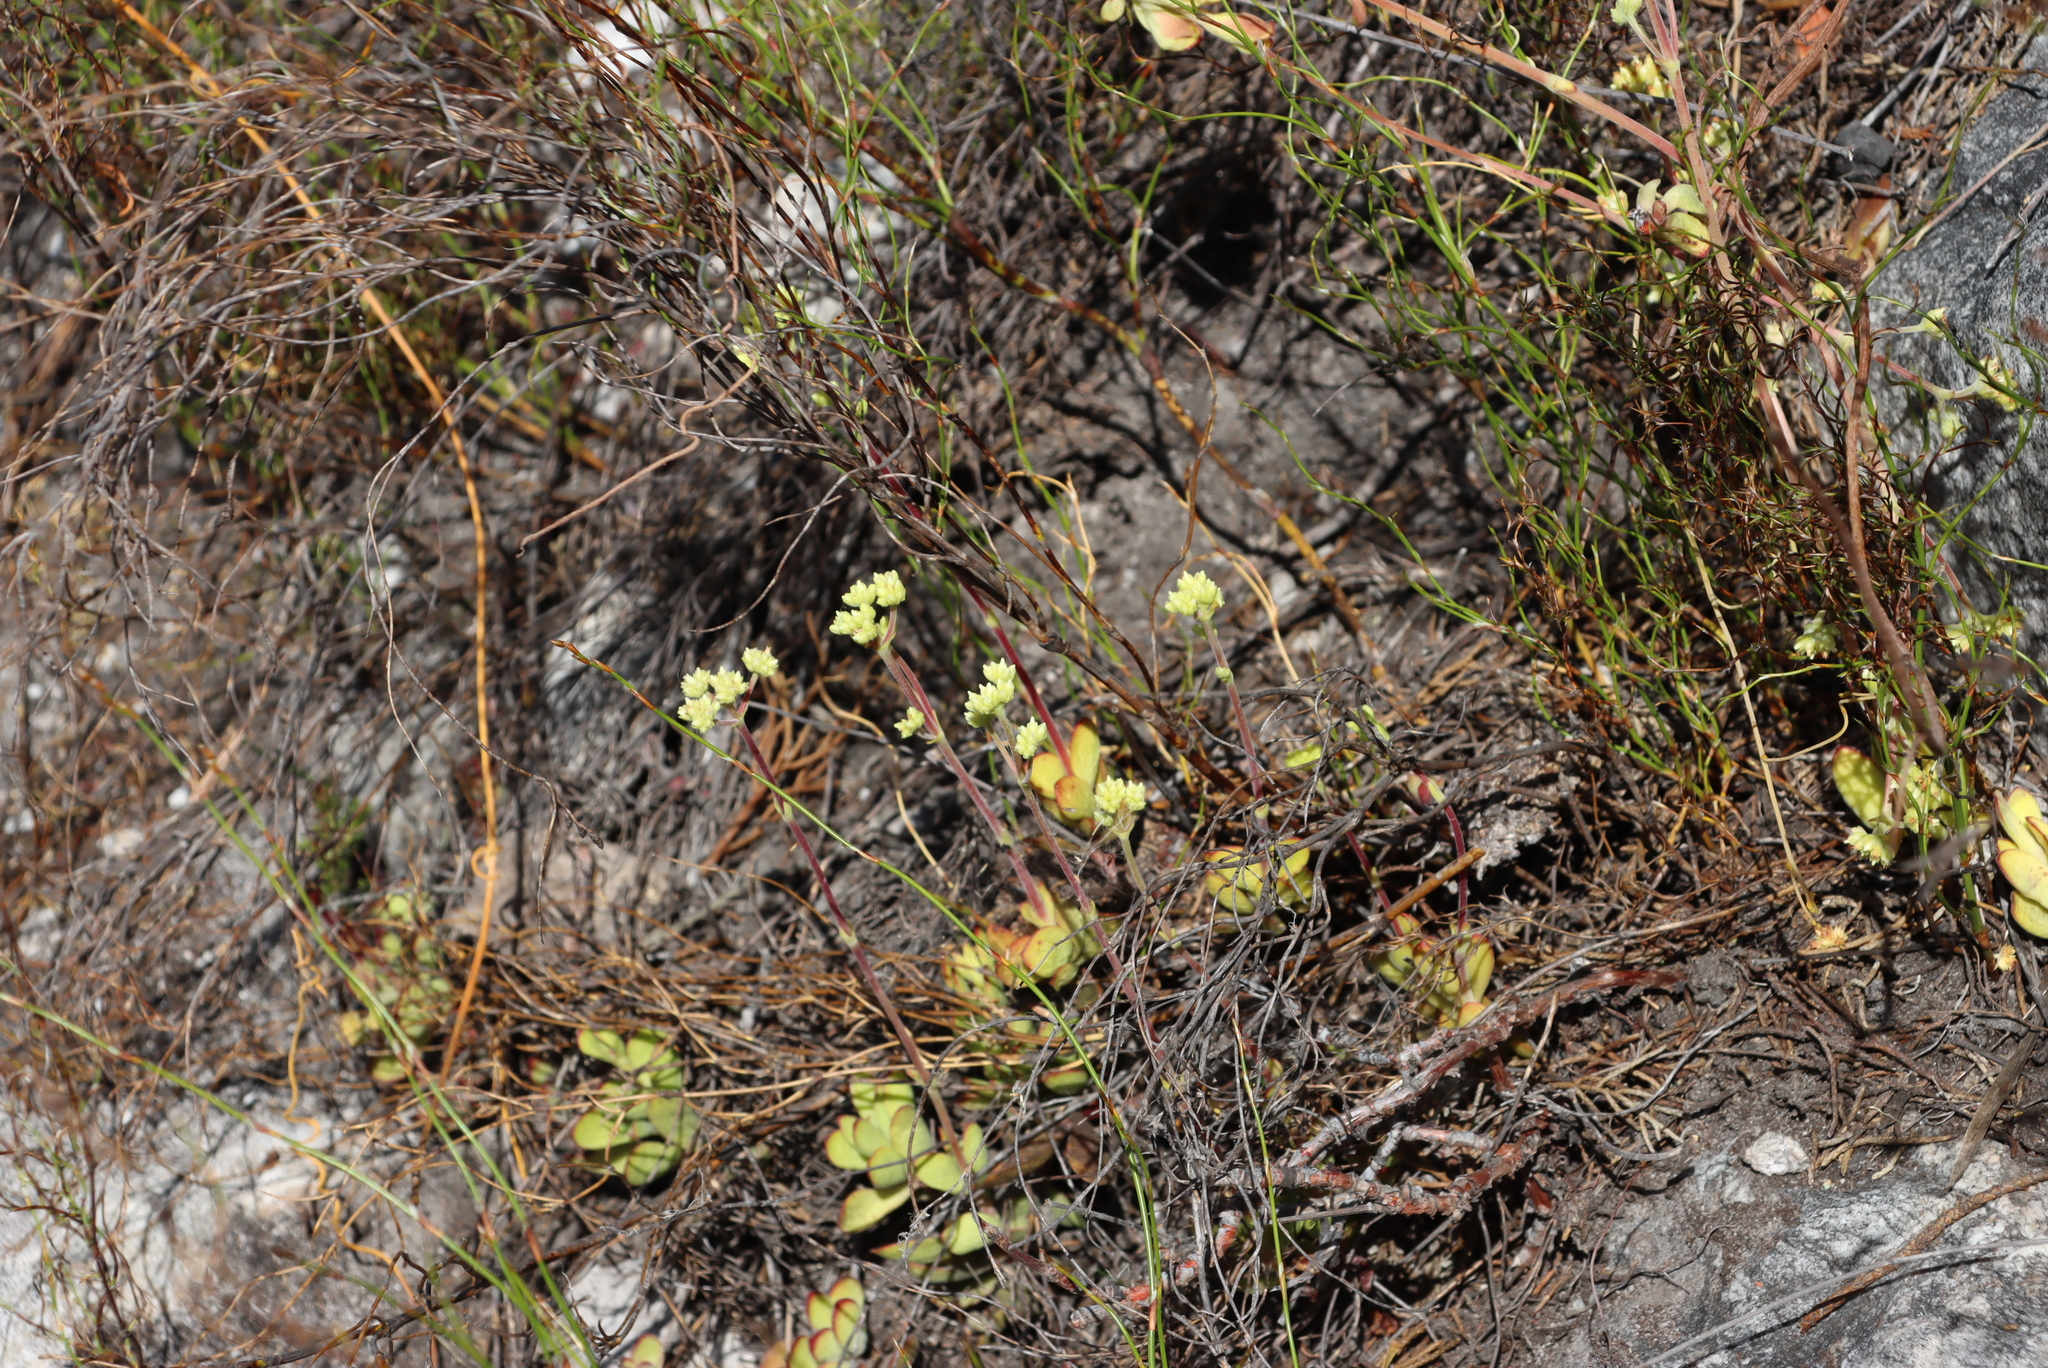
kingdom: Plantae
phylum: Tracheophyta
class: Magnoliopsida
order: Saxifragales
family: Crassulaceae
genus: Crassula
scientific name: Crassula atropurpurea
